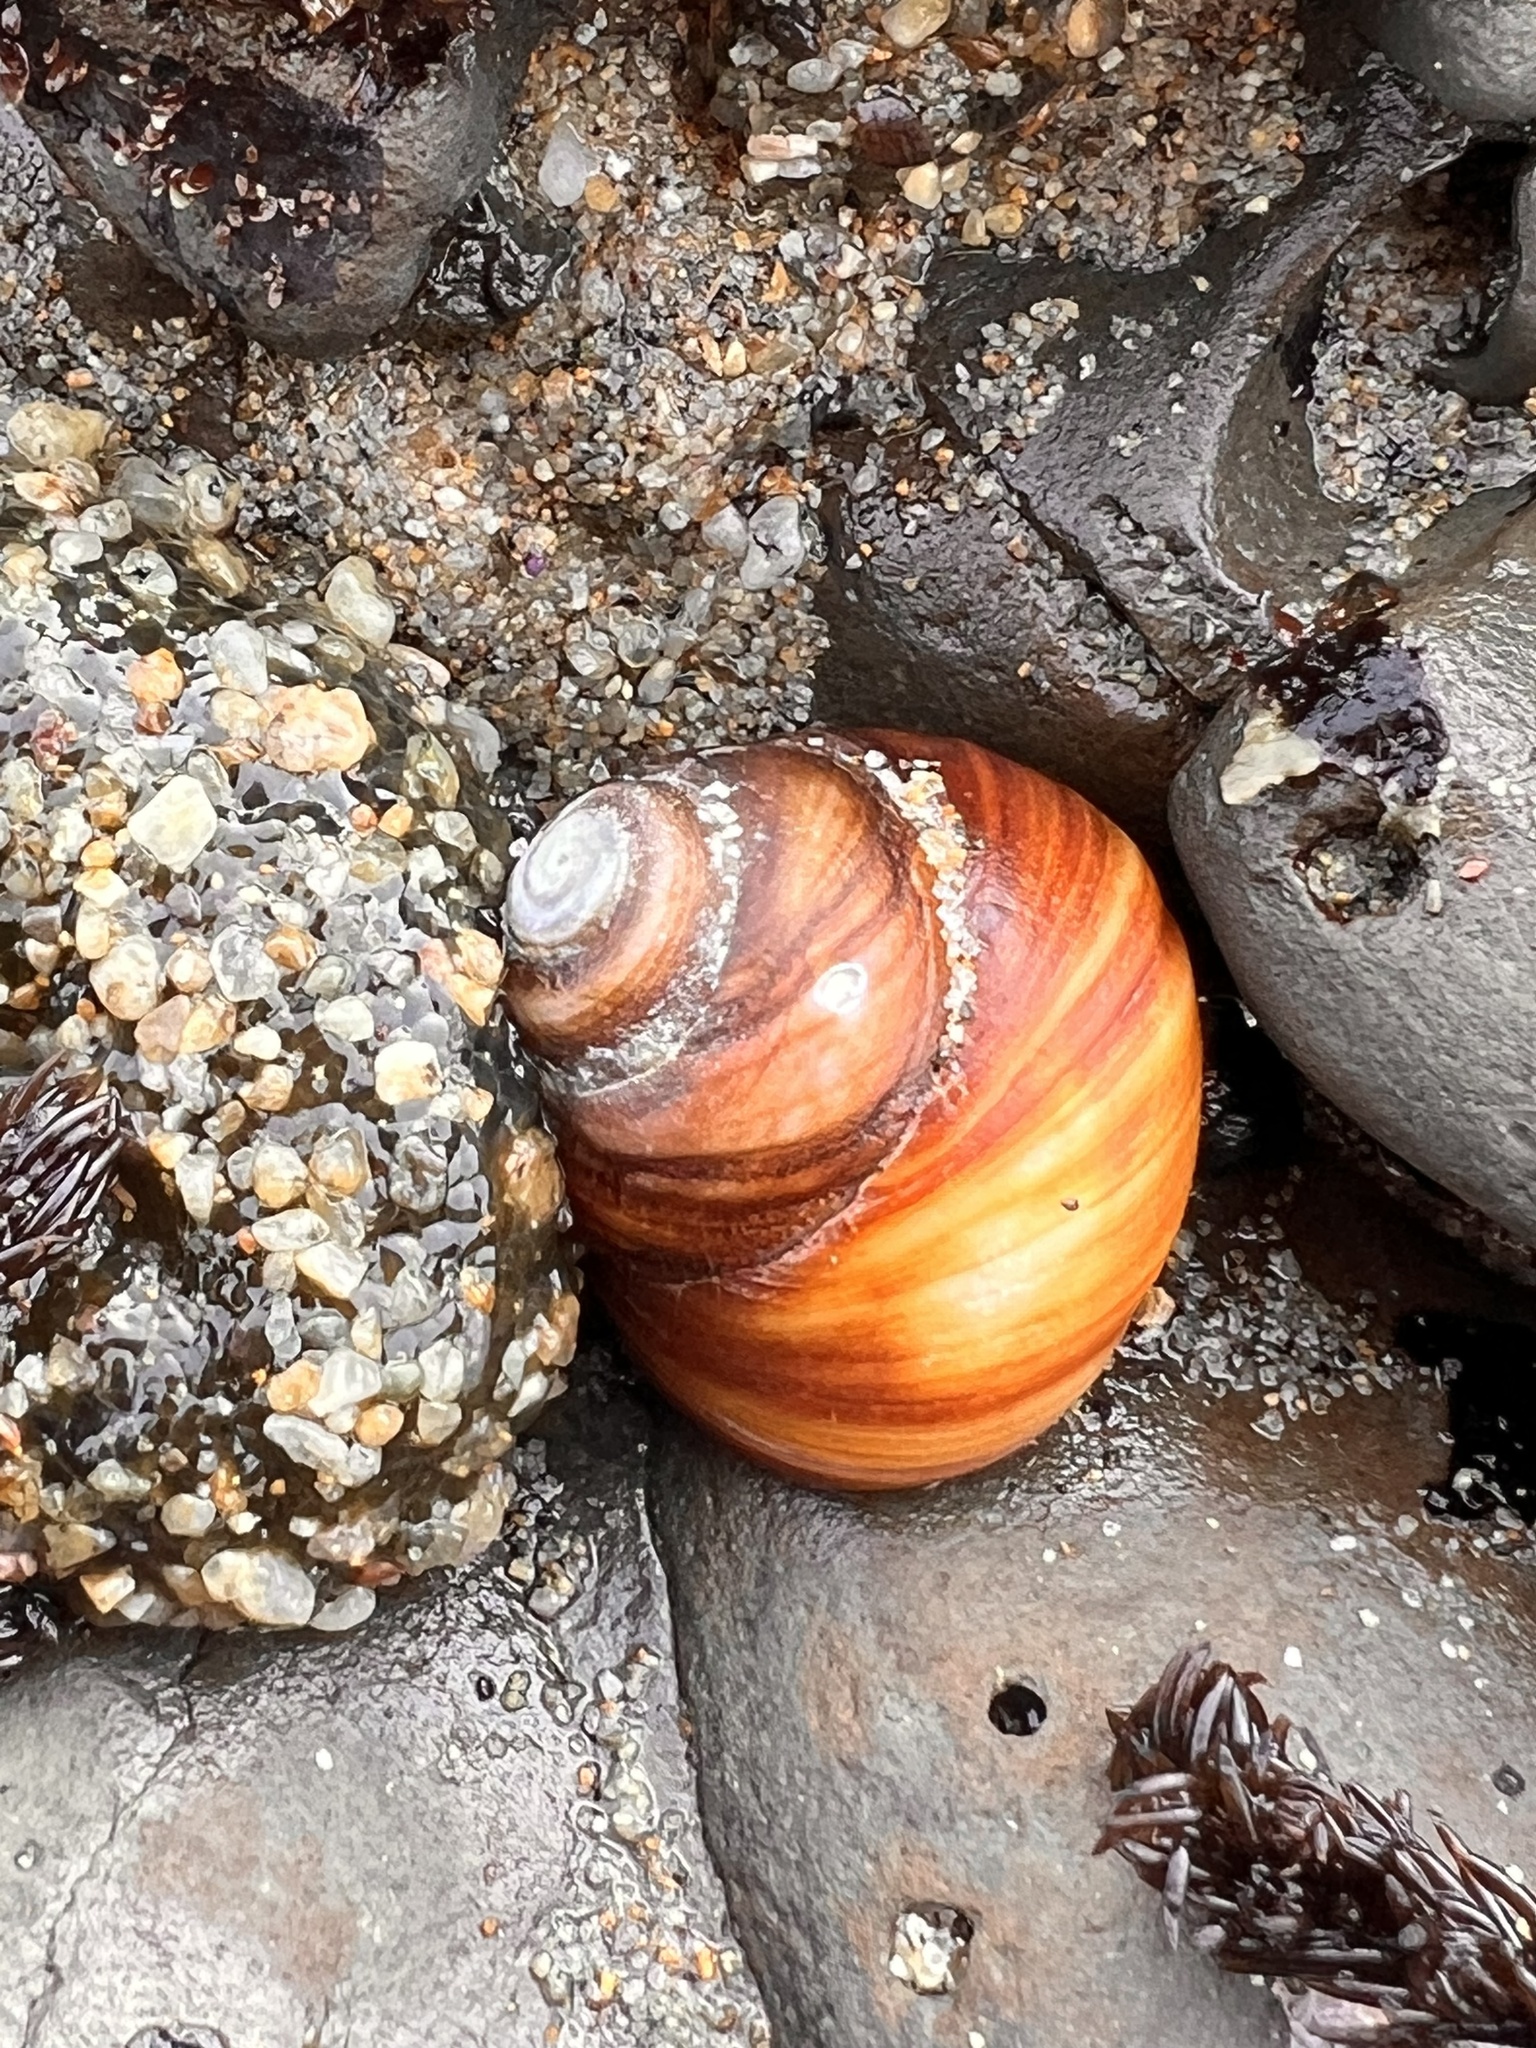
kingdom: Animalia
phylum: Mollusca
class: Gastropoda
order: Trochida
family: Tegulidae
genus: Tegula
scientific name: Tegula brunnea
